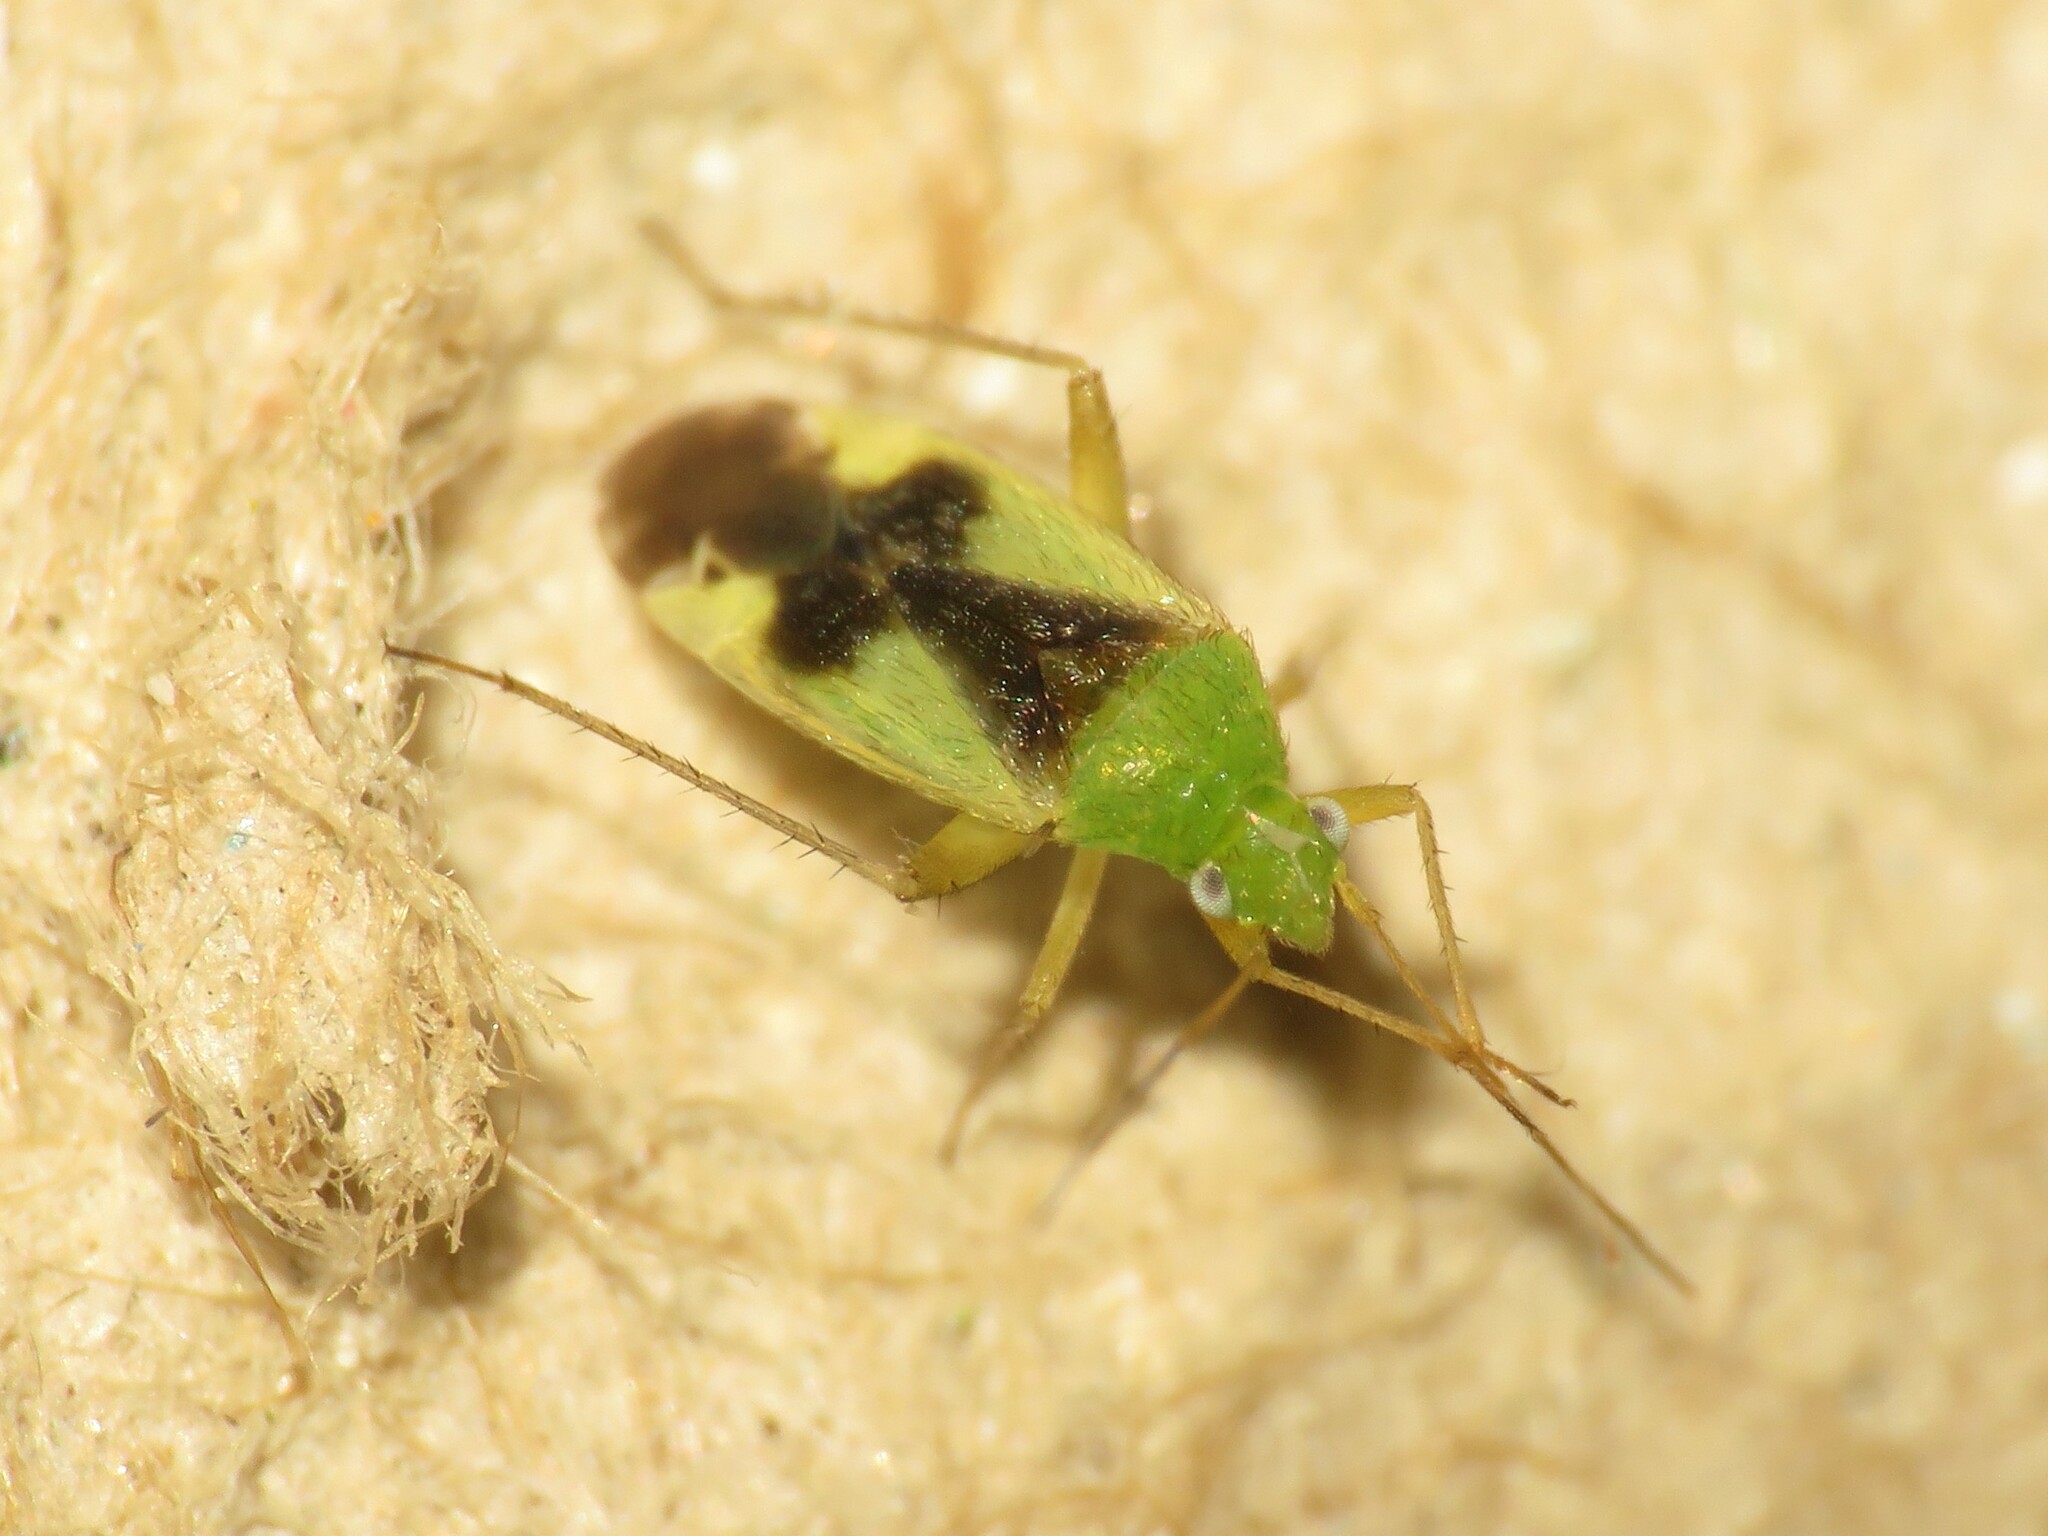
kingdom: Animalia
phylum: Arthropoda
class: Insecta
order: Hemiptera
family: Miridae
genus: Reuteroscopus
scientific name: Reuteroscopus ornatus
